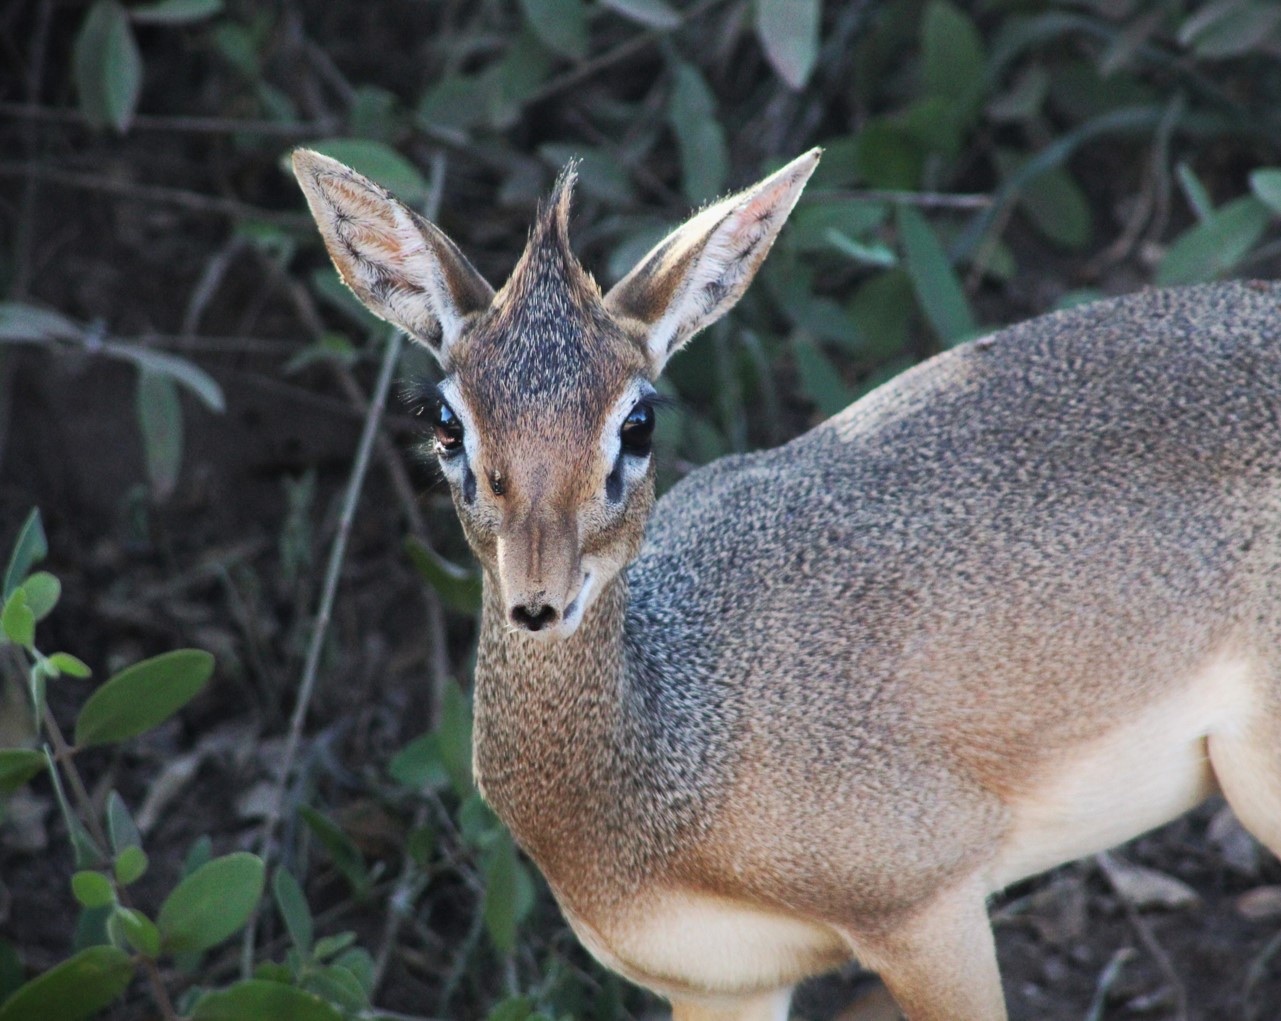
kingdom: Animalia
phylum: Chordata
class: Mammalia
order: Artiodactyla
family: Bovidae
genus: Madoqua
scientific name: Madoqua
